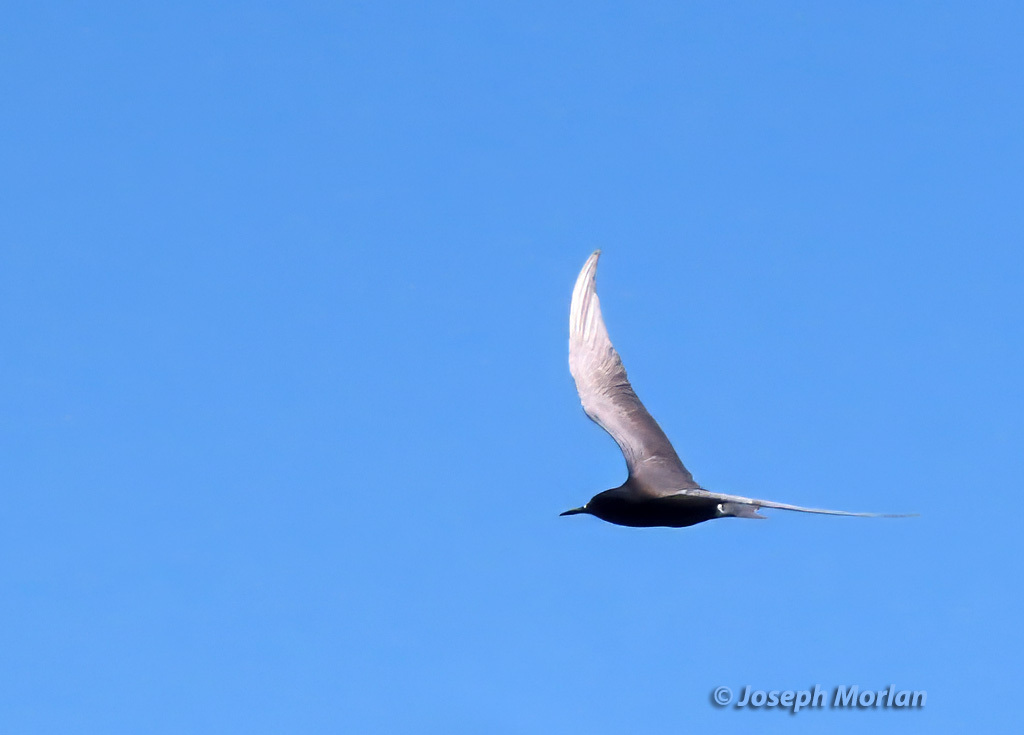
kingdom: Animalia
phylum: Chordata
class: Aves
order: Charadriiformes
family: Laridae
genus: Chlidonias
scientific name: Chlidonias niger
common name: Black tern
